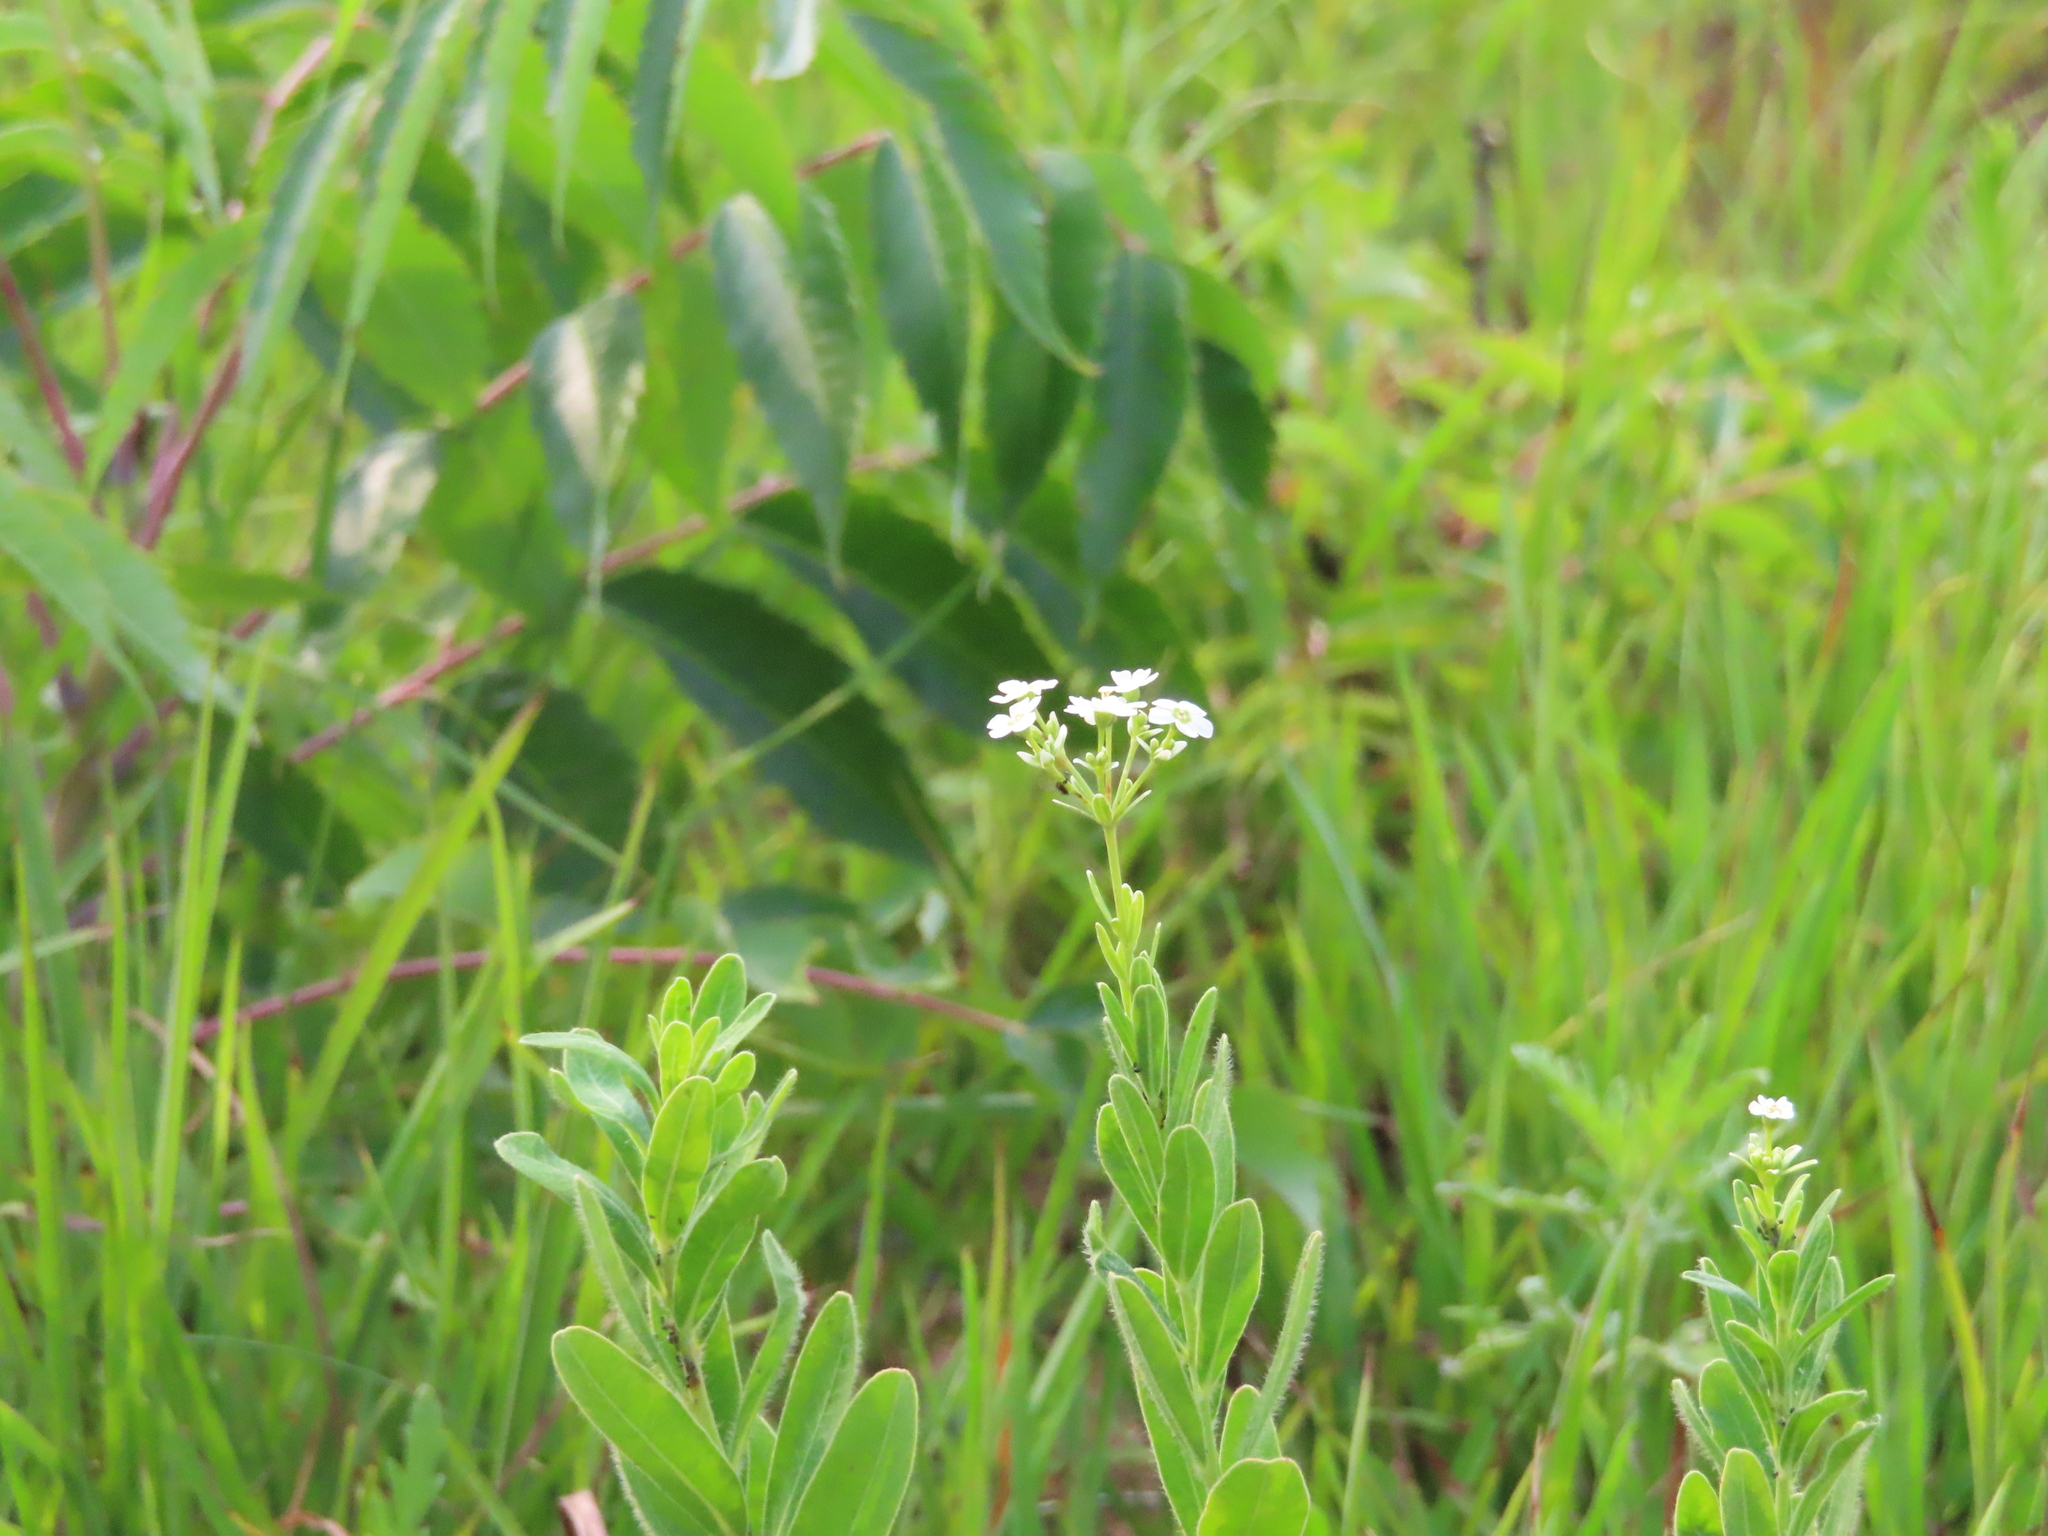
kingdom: Plantae
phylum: Tracheophyta
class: Magnoliopsida
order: Malpighiales
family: Euphorbiaceae
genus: Euphorbia
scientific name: Euphorbia corollata
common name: Flowering spurge
